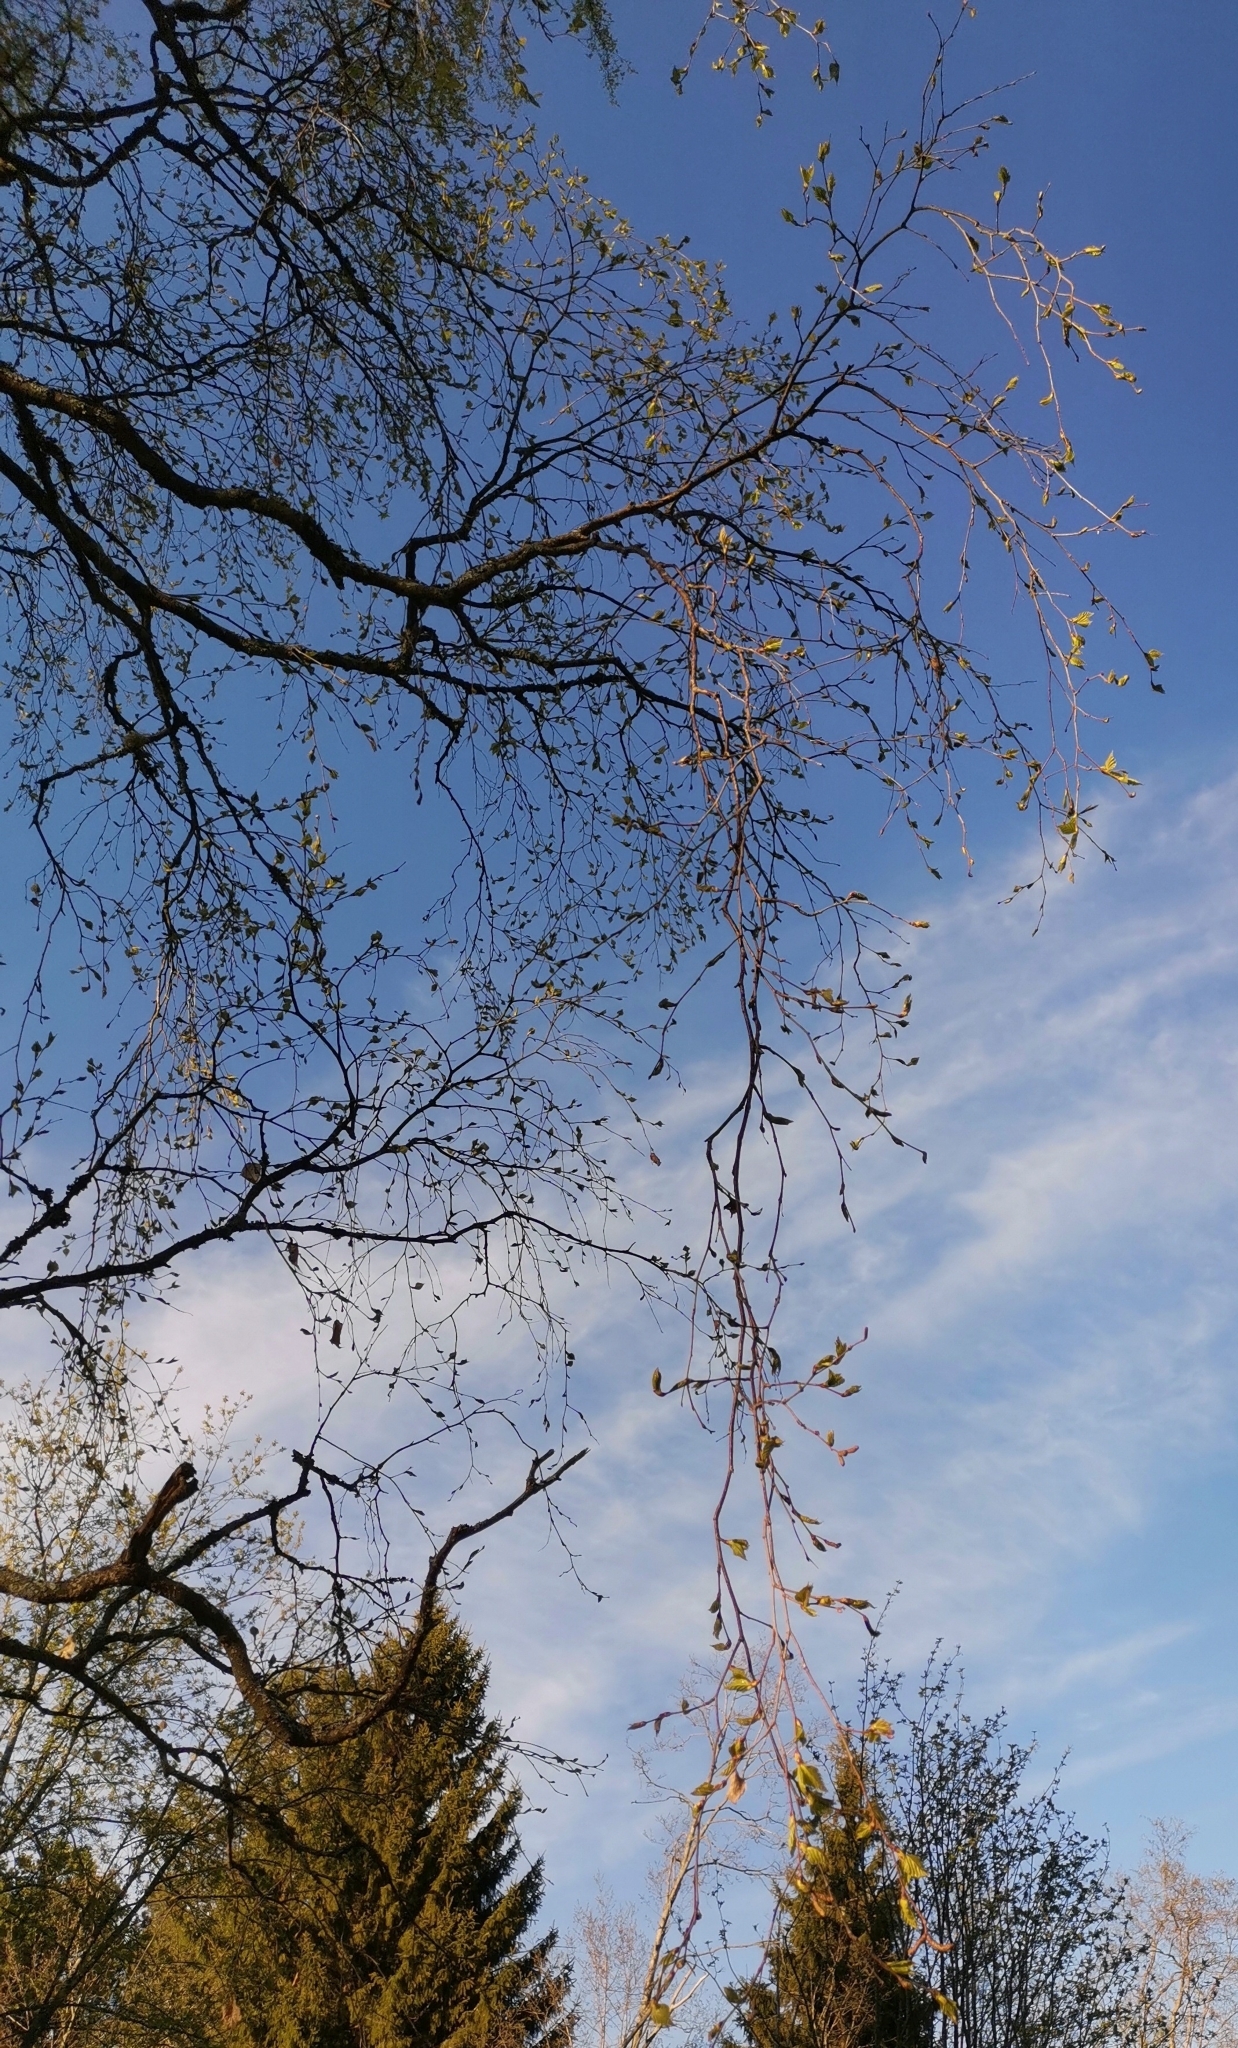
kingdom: Plantae
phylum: Tracheophyta
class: Magnoliopsida
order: Fagales
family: Betulaceae
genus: Betula
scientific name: Betula pendula
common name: Silver birch
